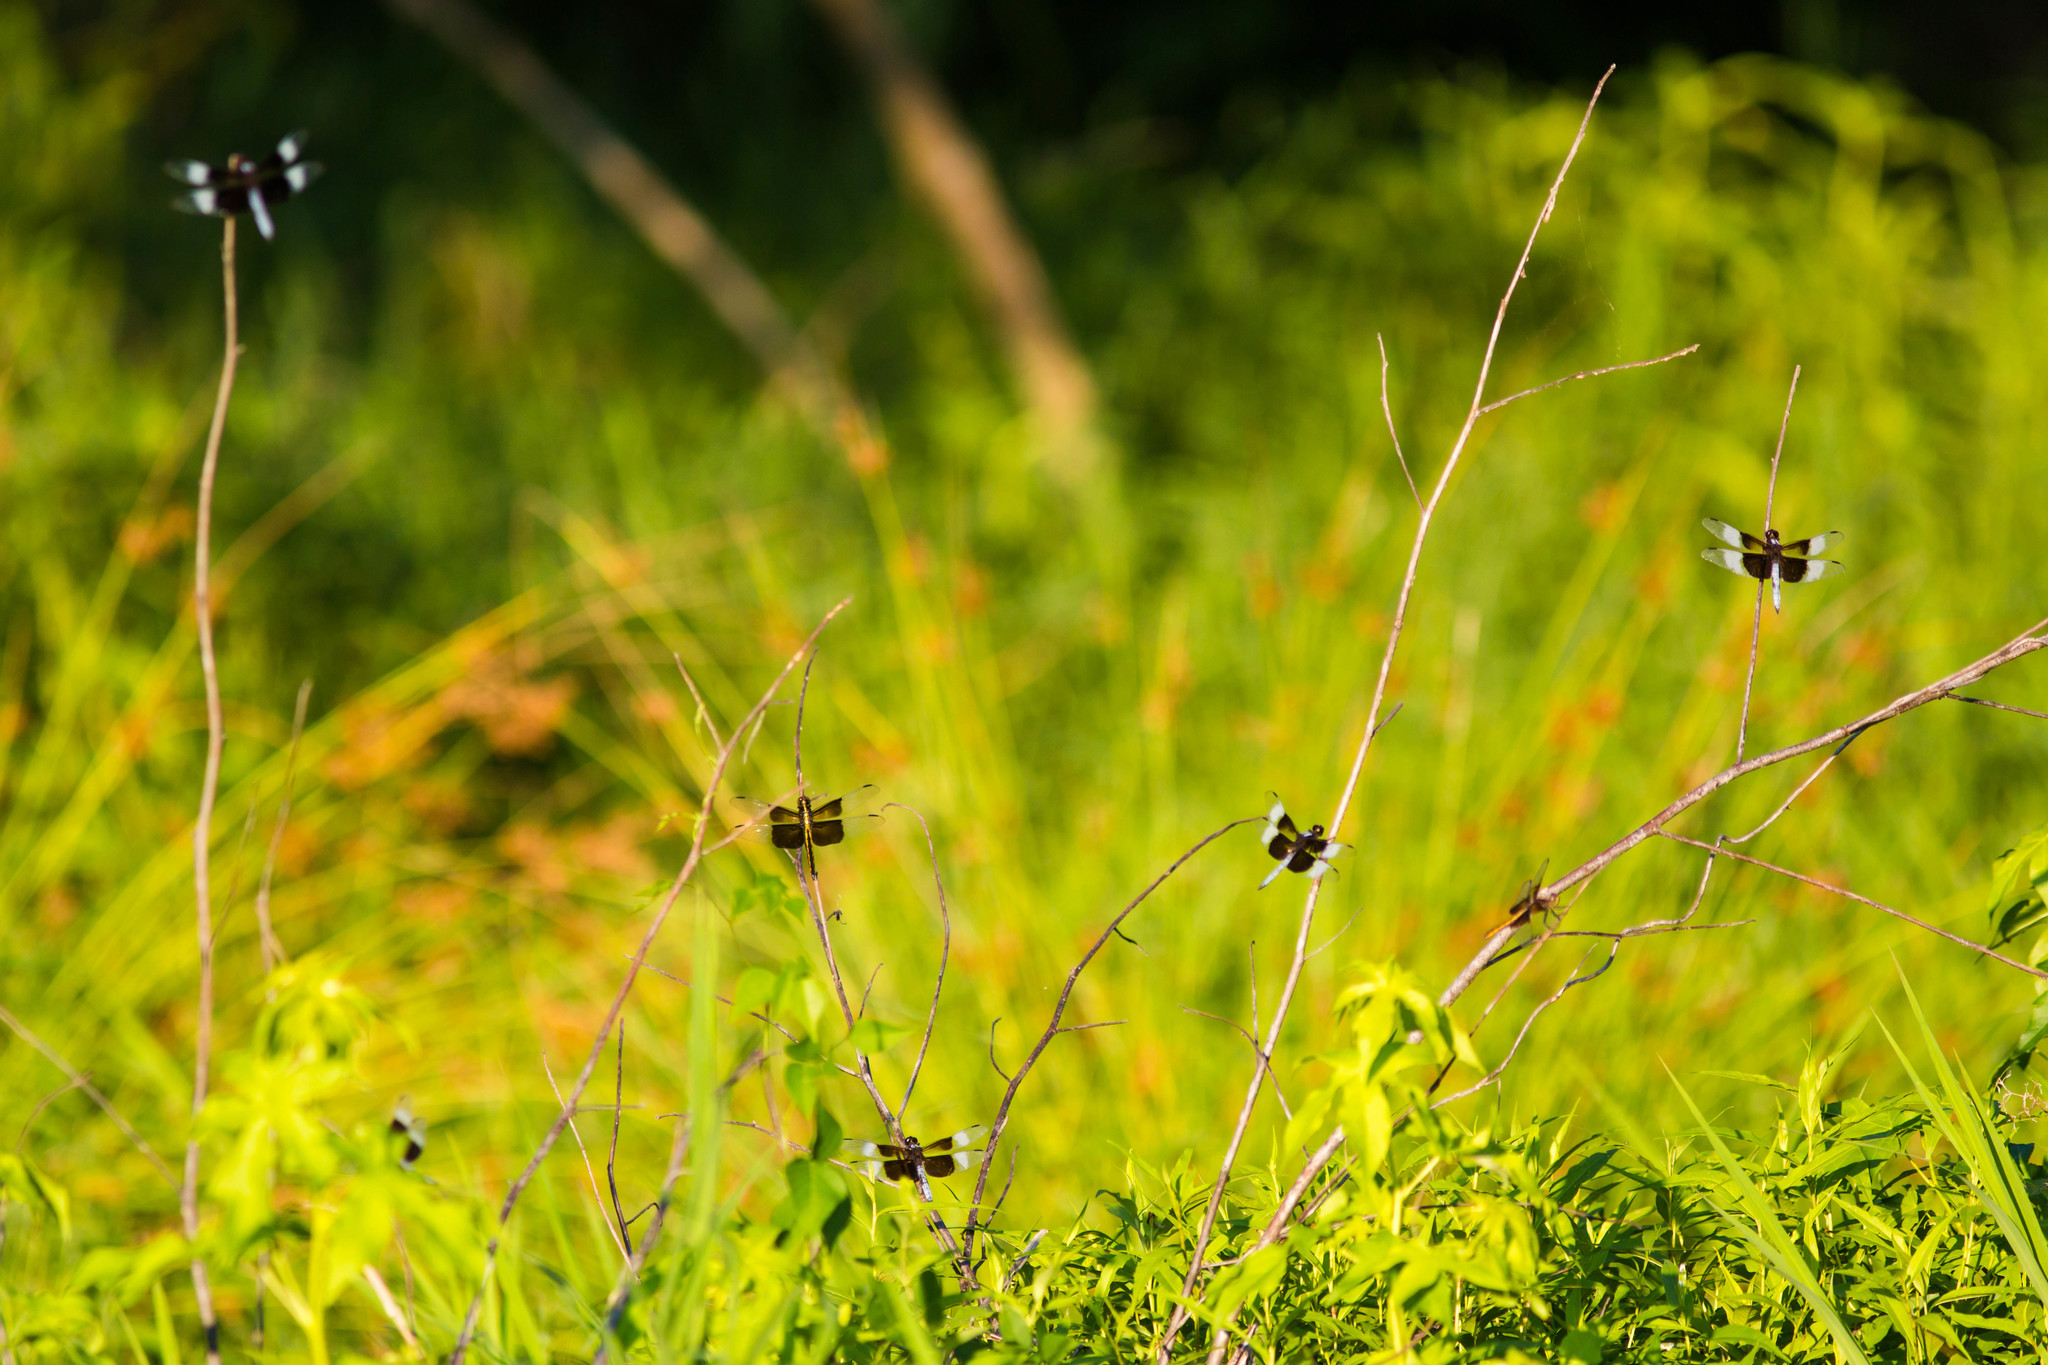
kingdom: Animalia
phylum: Arthropoda
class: Insecta
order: Odonata
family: Libellulidae
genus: Libellula
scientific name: Libellula luctuosa
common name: Widow skimmer
